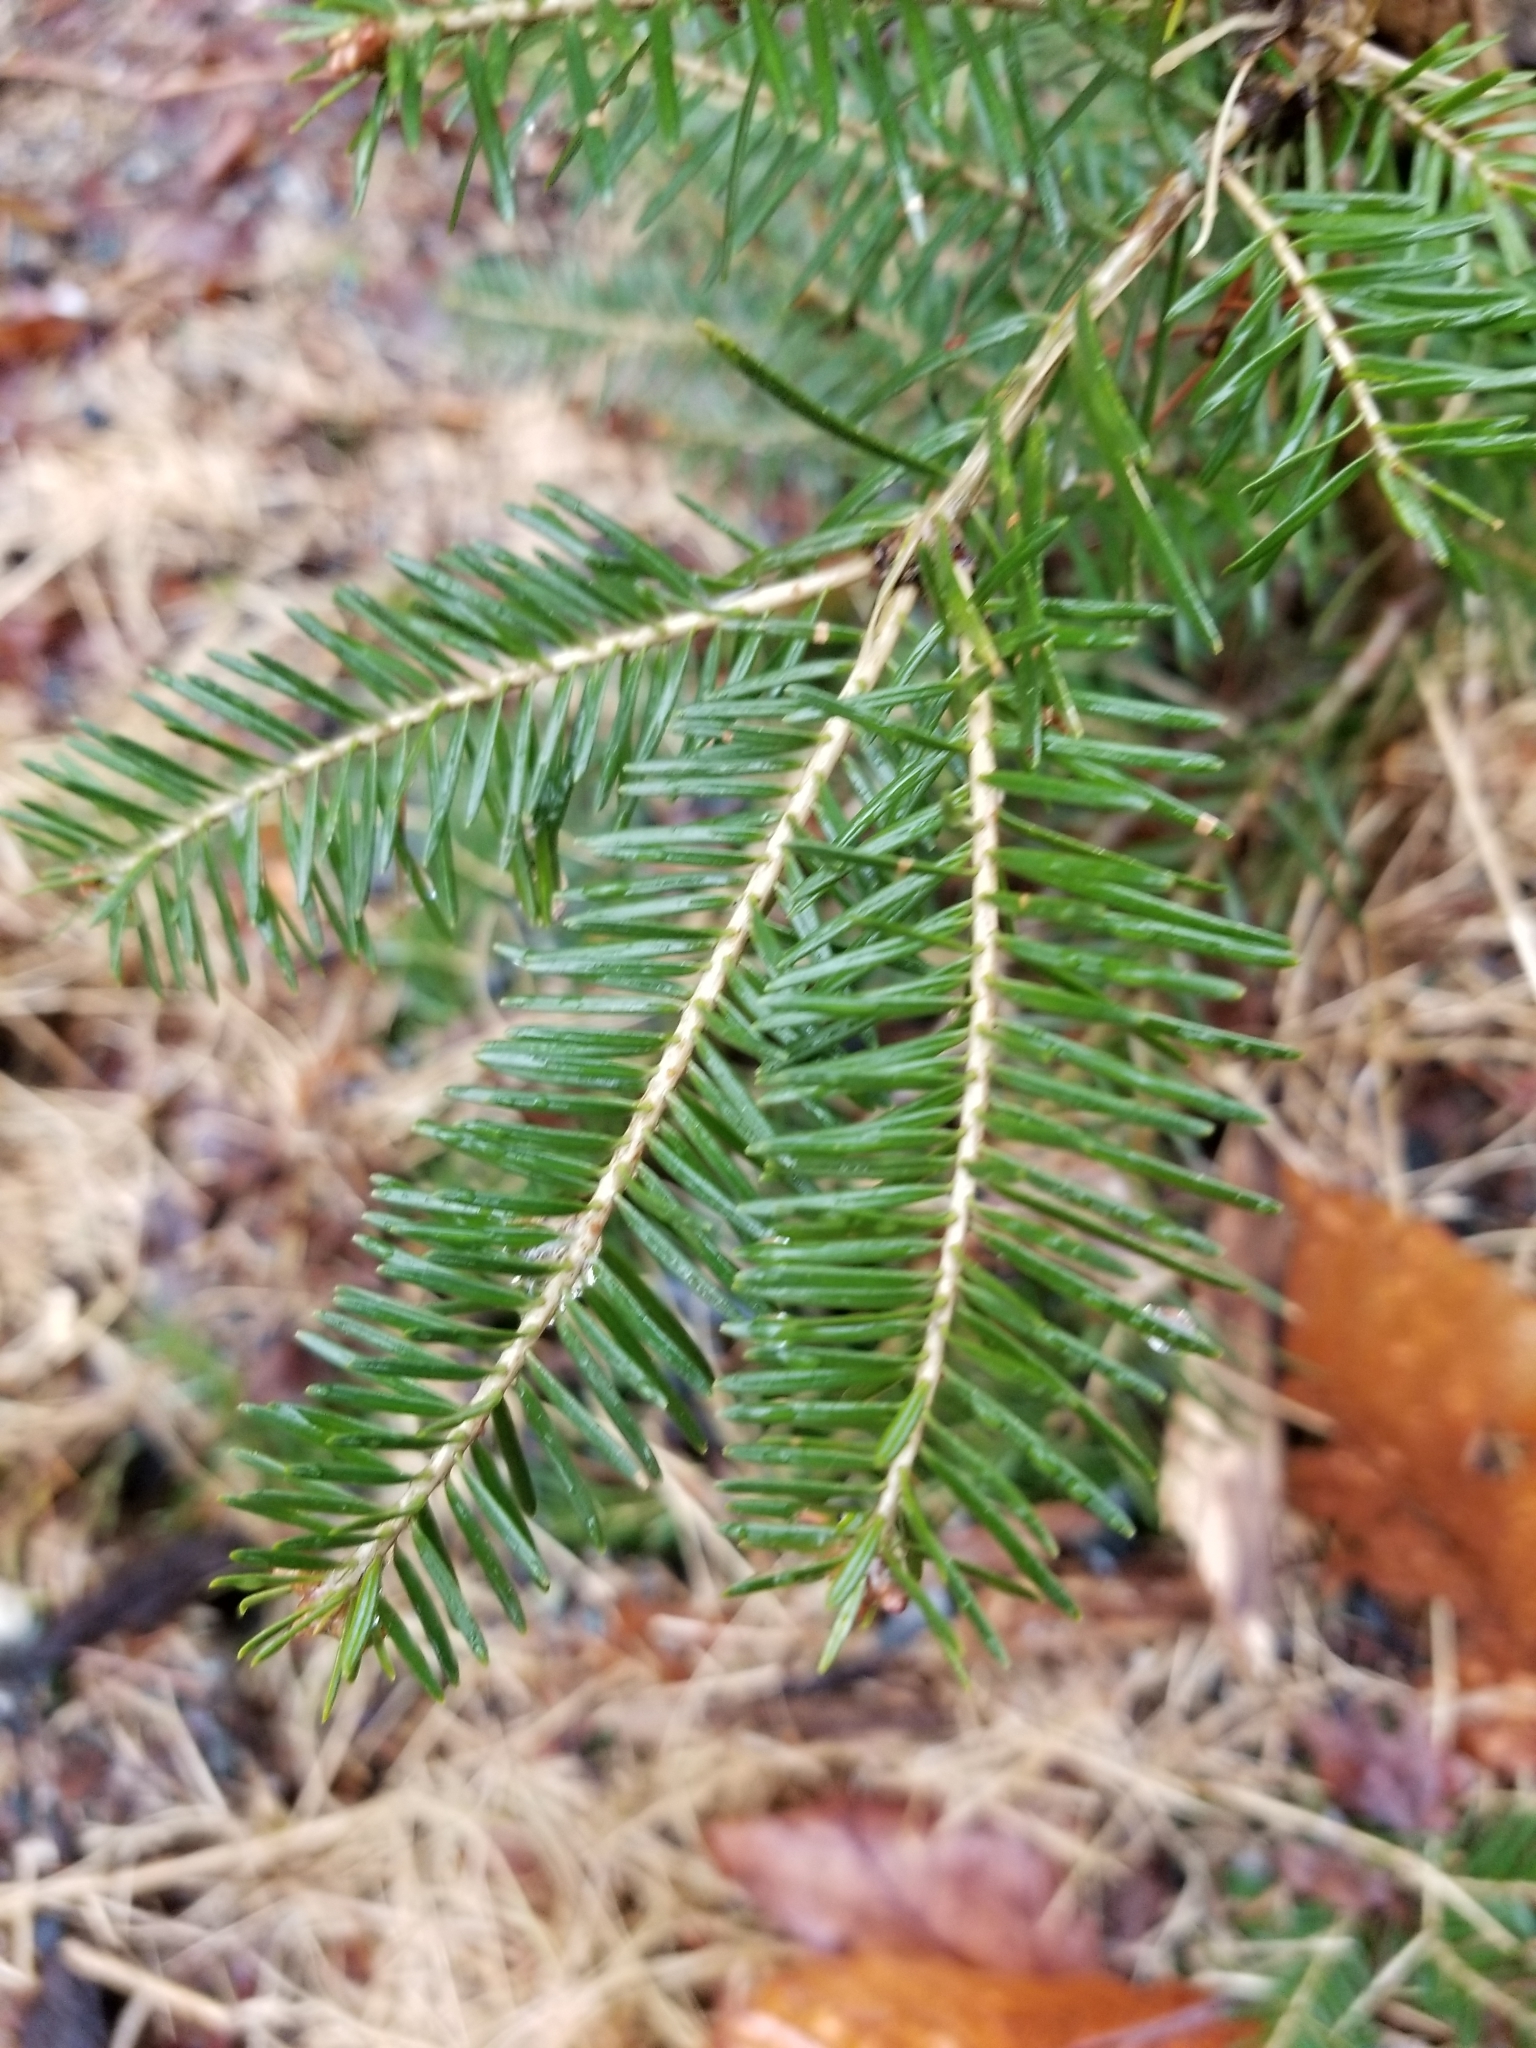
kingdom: Plantae
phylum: Tracheophyta
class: Pinopsida
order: Pinales
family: Pinaceae
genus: Abies
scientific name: Abies balsamea
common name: Balsam fir
